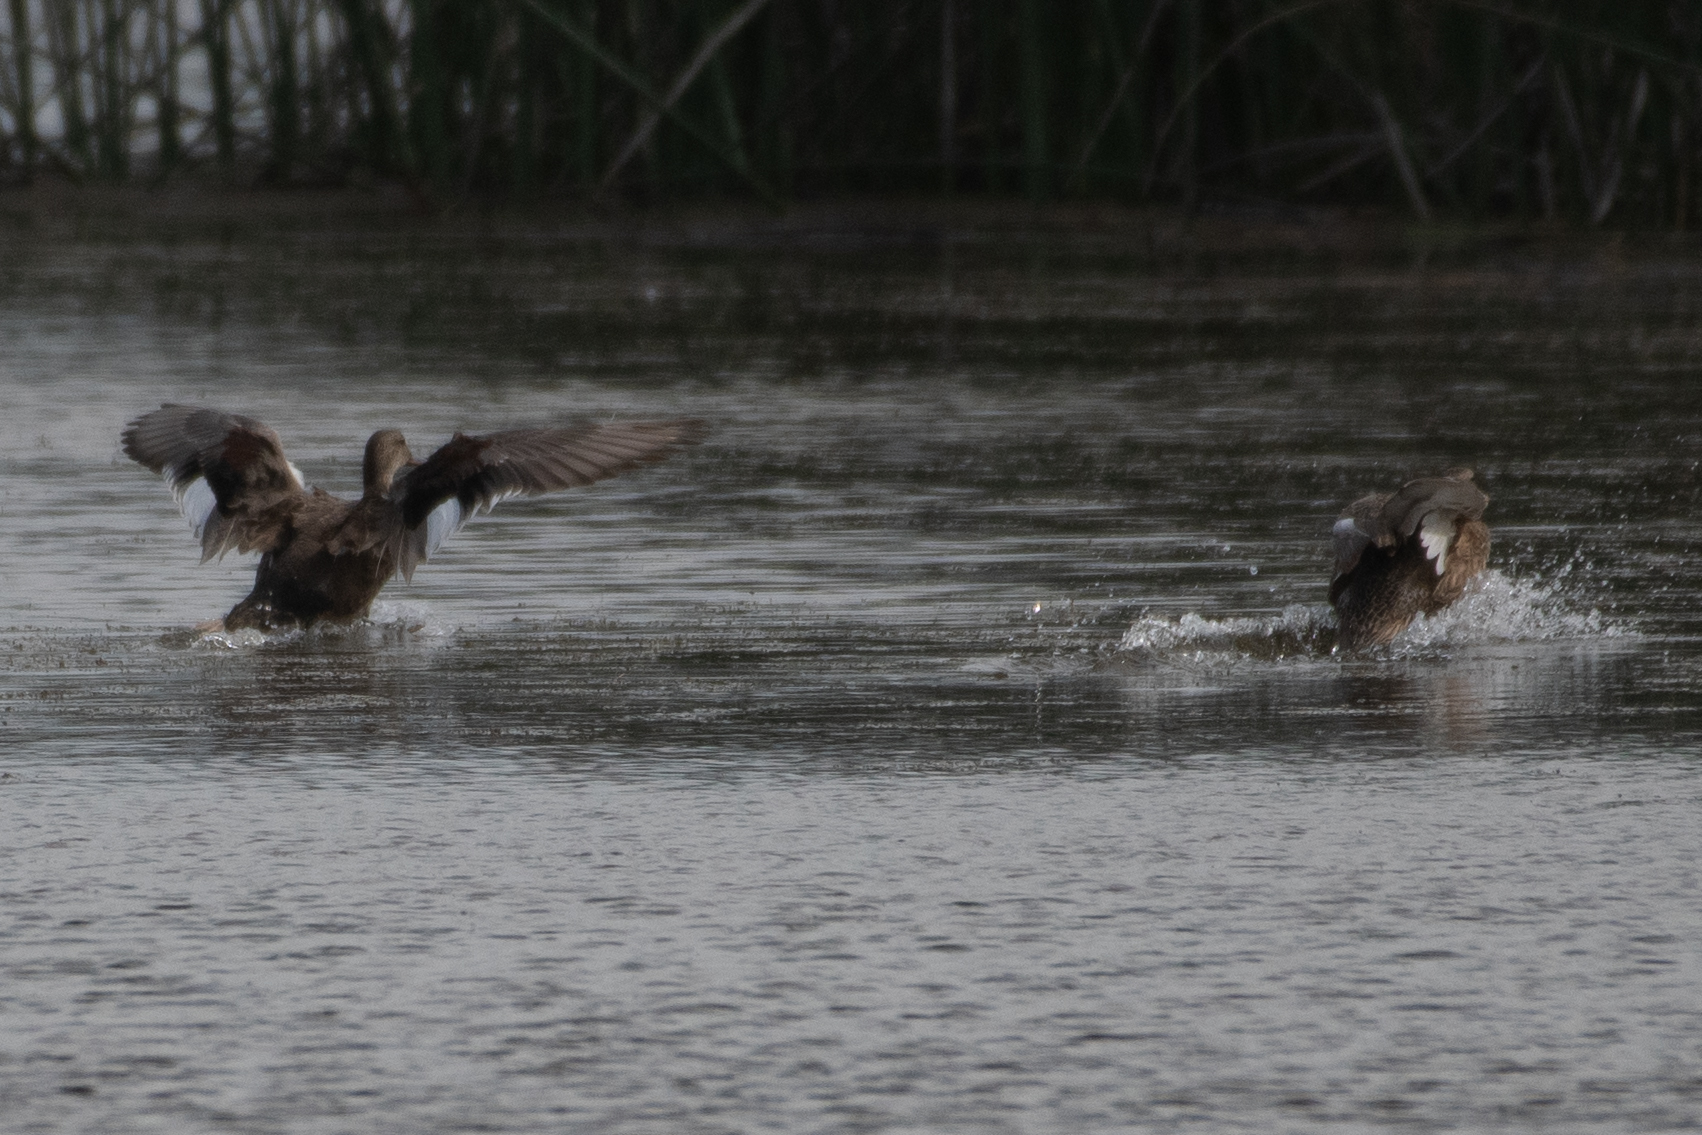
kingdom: Animalia
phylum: Chordata
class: Aves
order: Anseriformes
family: Anatidae
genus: Mareca
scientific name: Mareca strepera
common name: Gadwall
